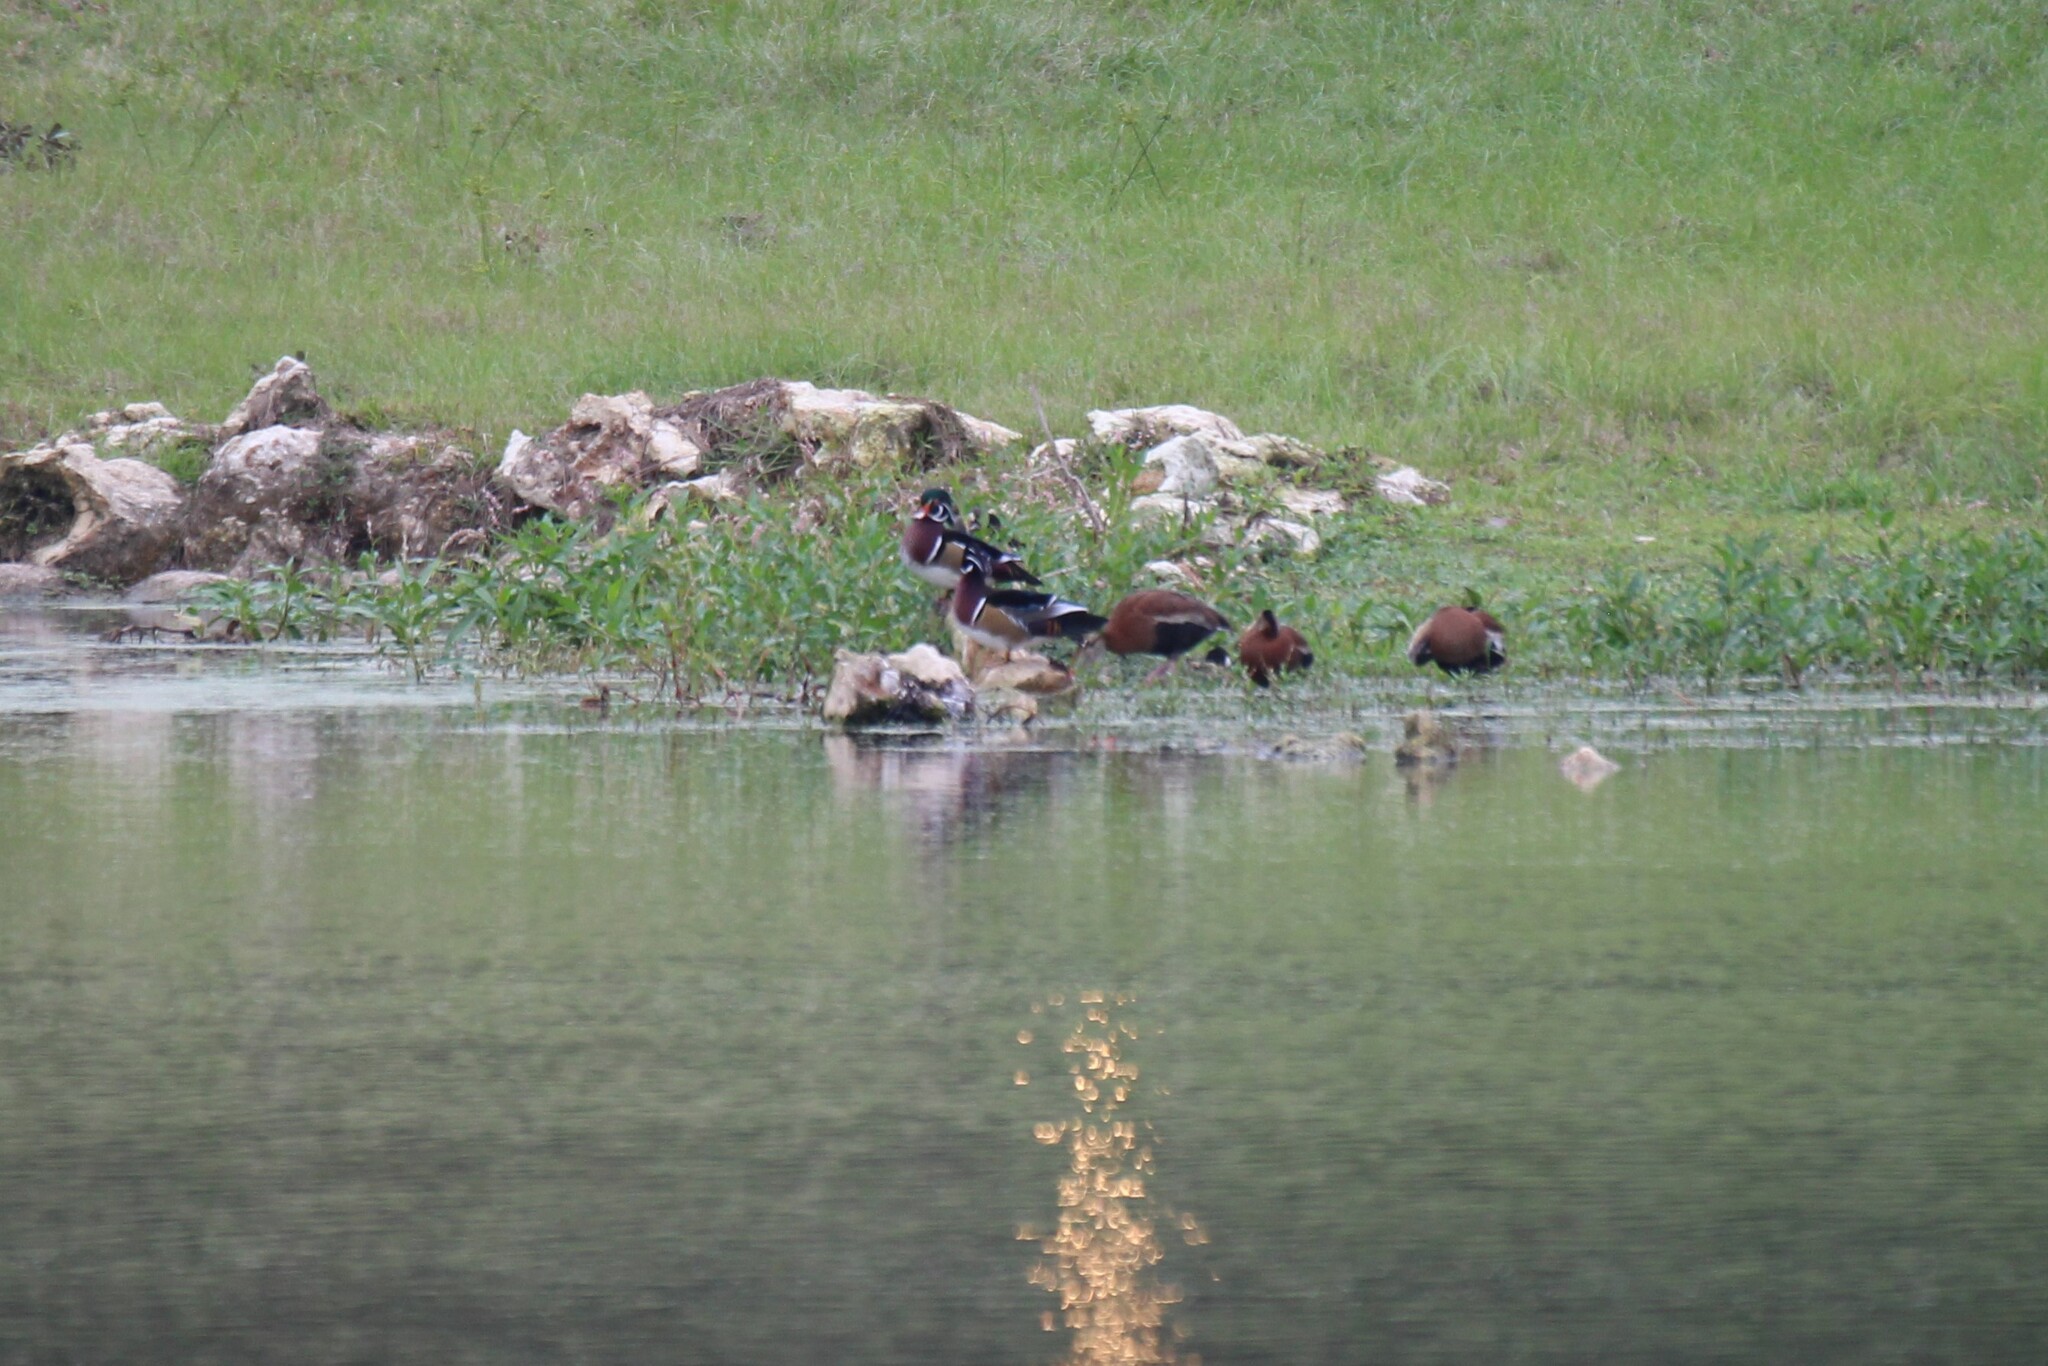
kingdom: Animalia
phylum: Chordata
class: Aves
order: Anseriformes
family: Anatidae
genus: Aix
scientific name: Aix sponsa
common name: Wood duck
